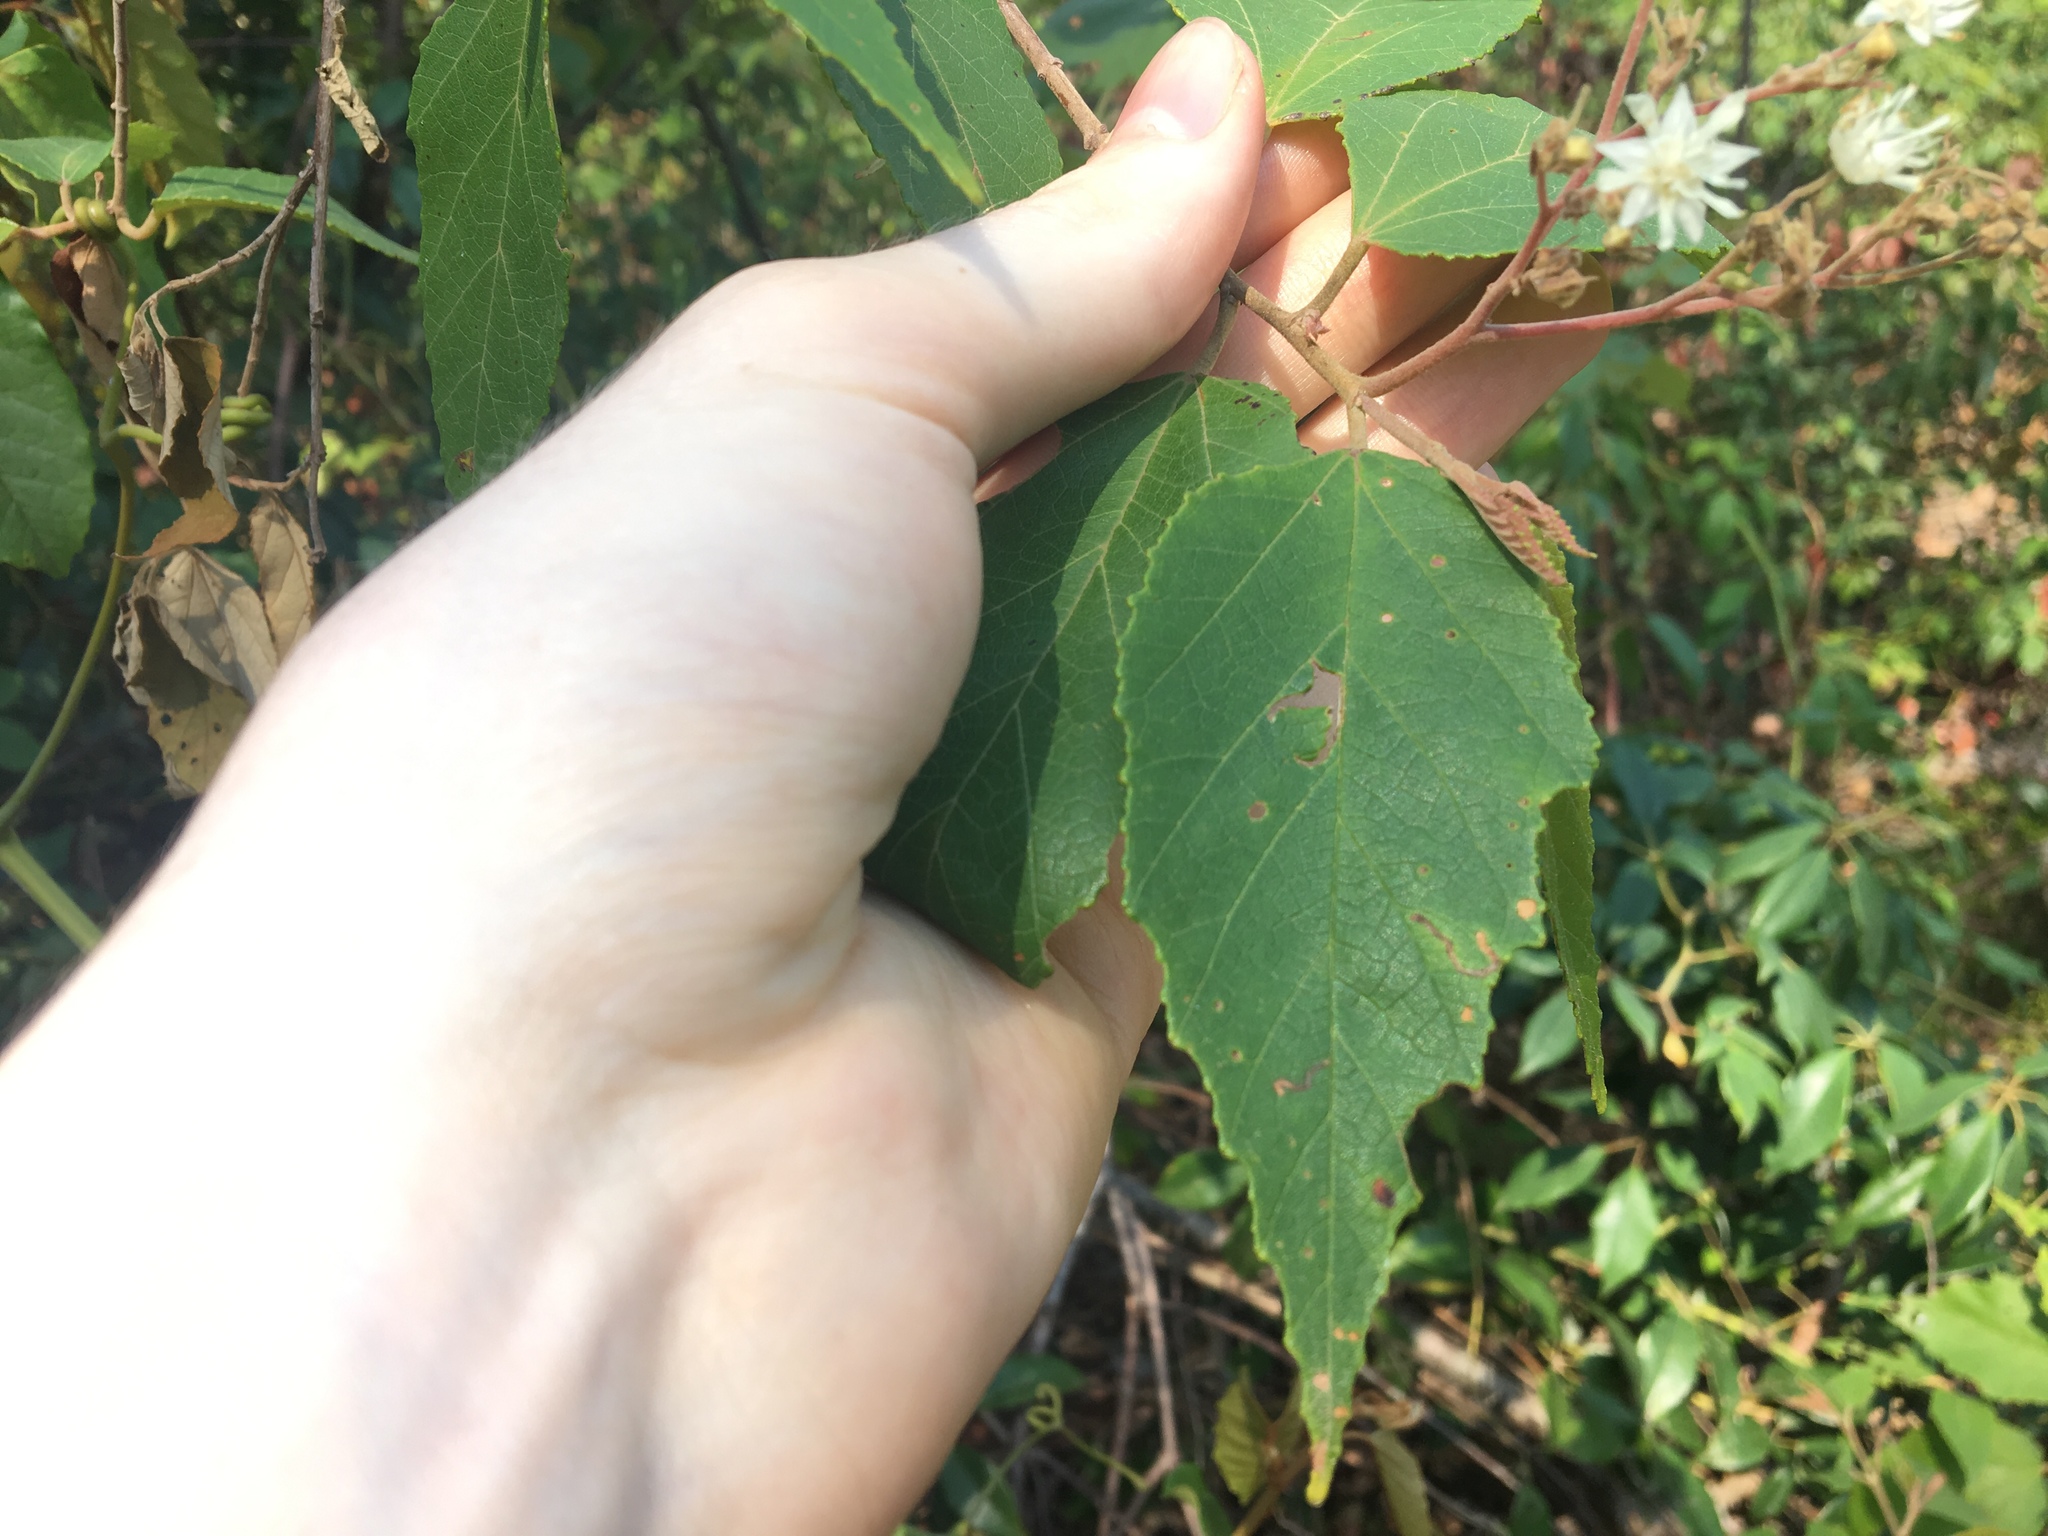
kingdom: Plantae
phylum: Tracheophyta
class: Magnoliopsida
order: Malvales
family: Malvaceae
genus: Androcalva
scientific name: Androcalva fraseri
